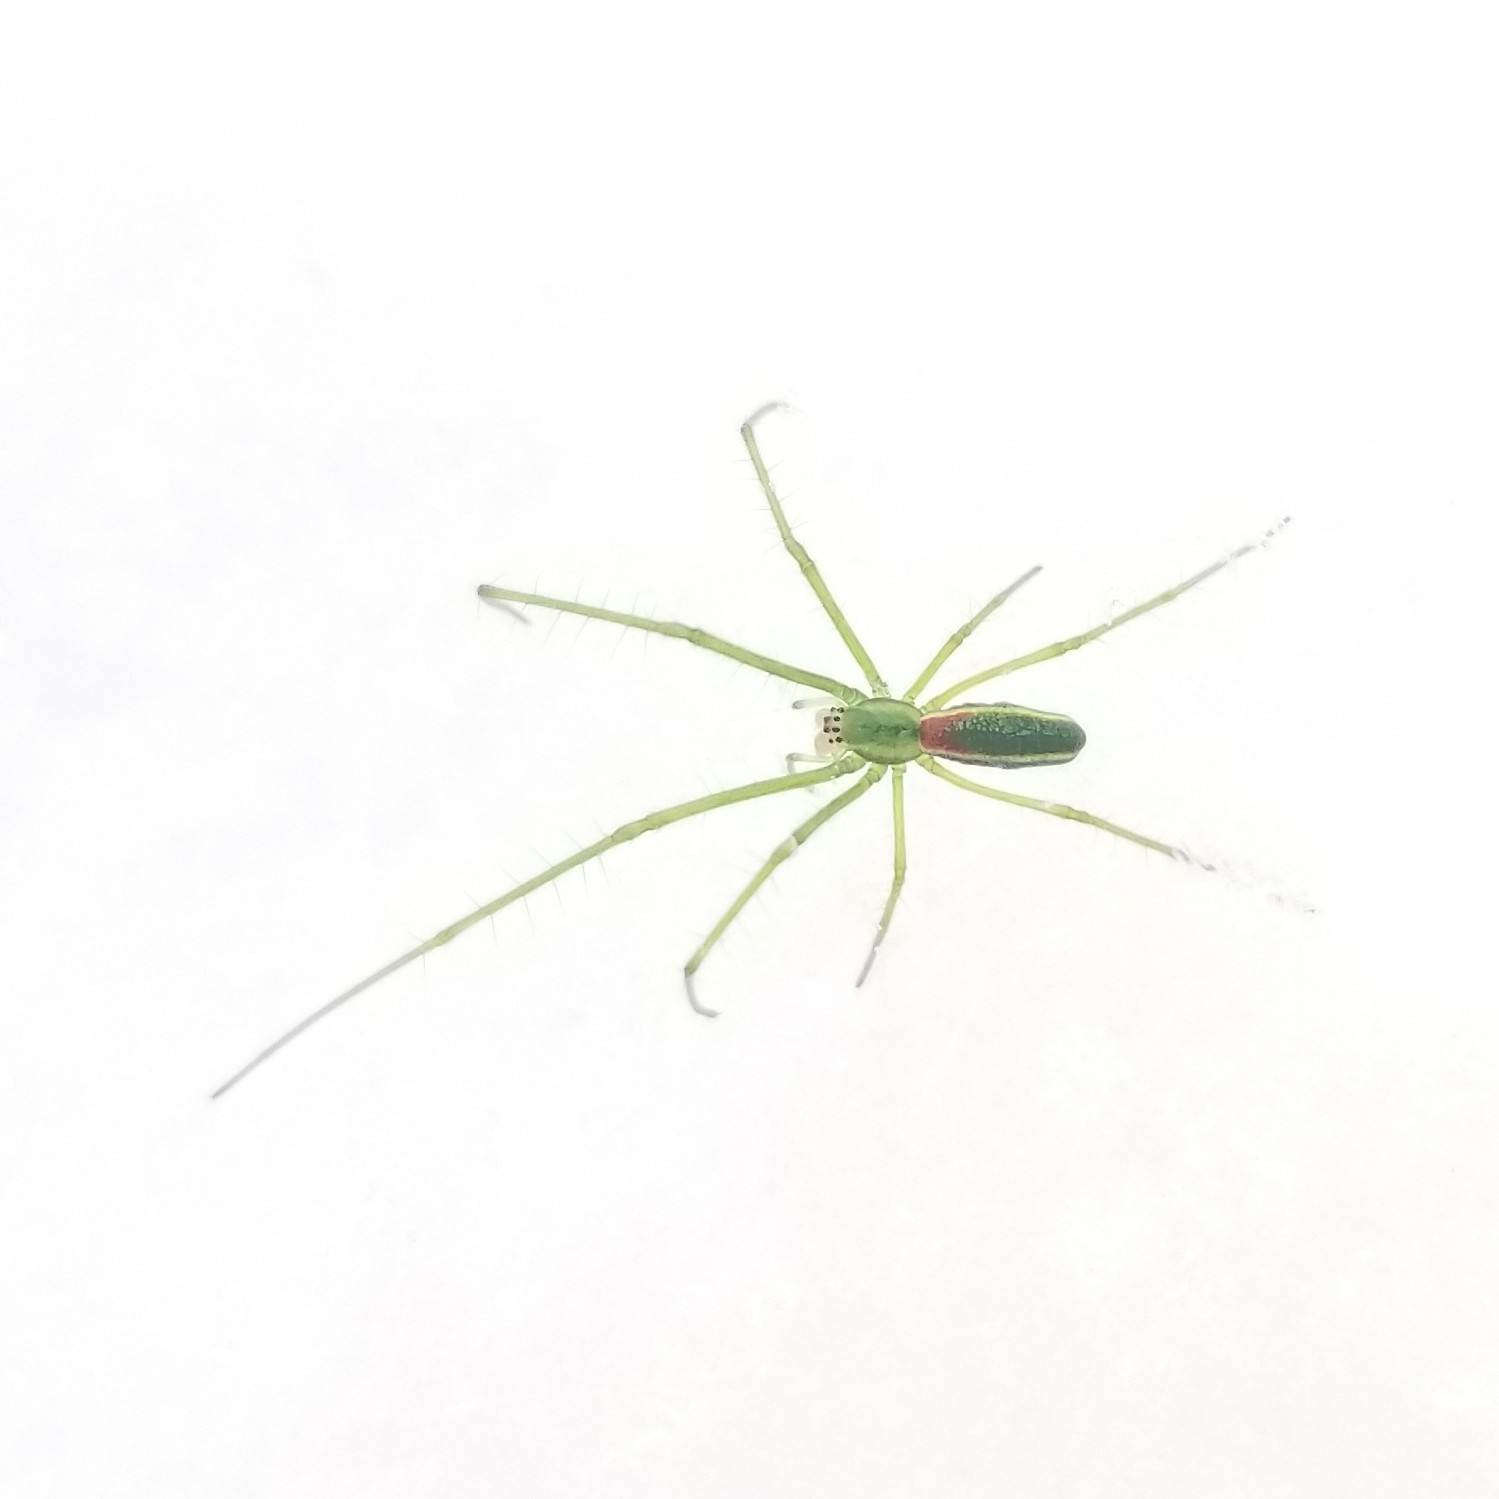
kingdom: Animalia
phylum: Arthropoda
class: Arachnida
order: Araneae
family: Tetragnathidae
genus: Tetragnatha
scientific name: Tetragnatha viridis
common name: Green long-jawed spider
